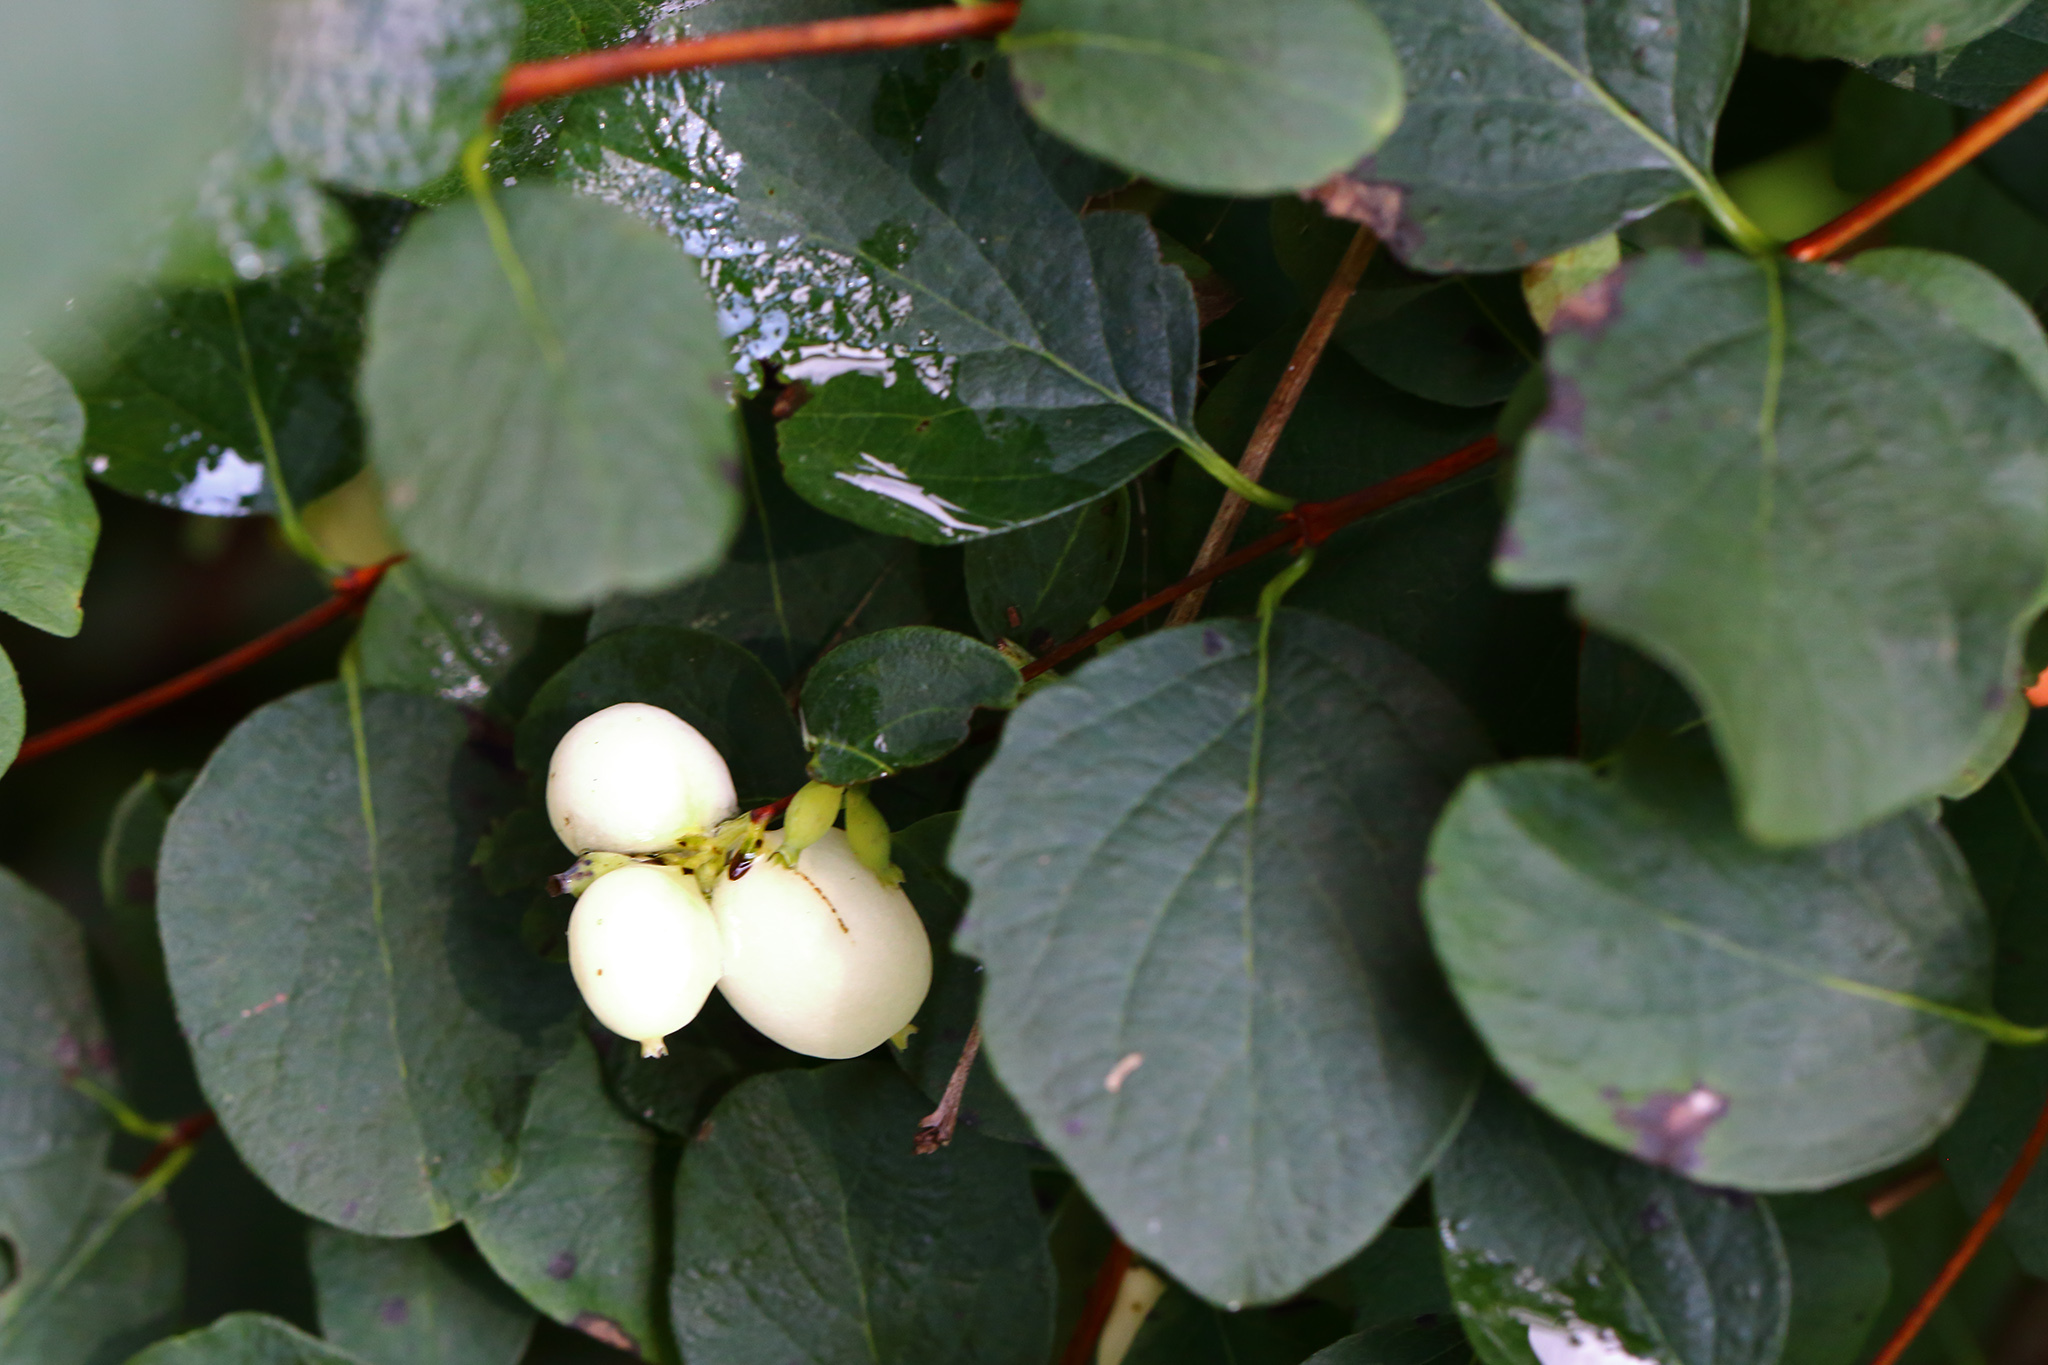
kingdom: Plantae
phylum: Tracheophyta
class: Magnoliopsida
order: Dipsacales
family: Caprifoliaceae
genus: Symphoricarpos
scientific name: Symphoricarpos albus
